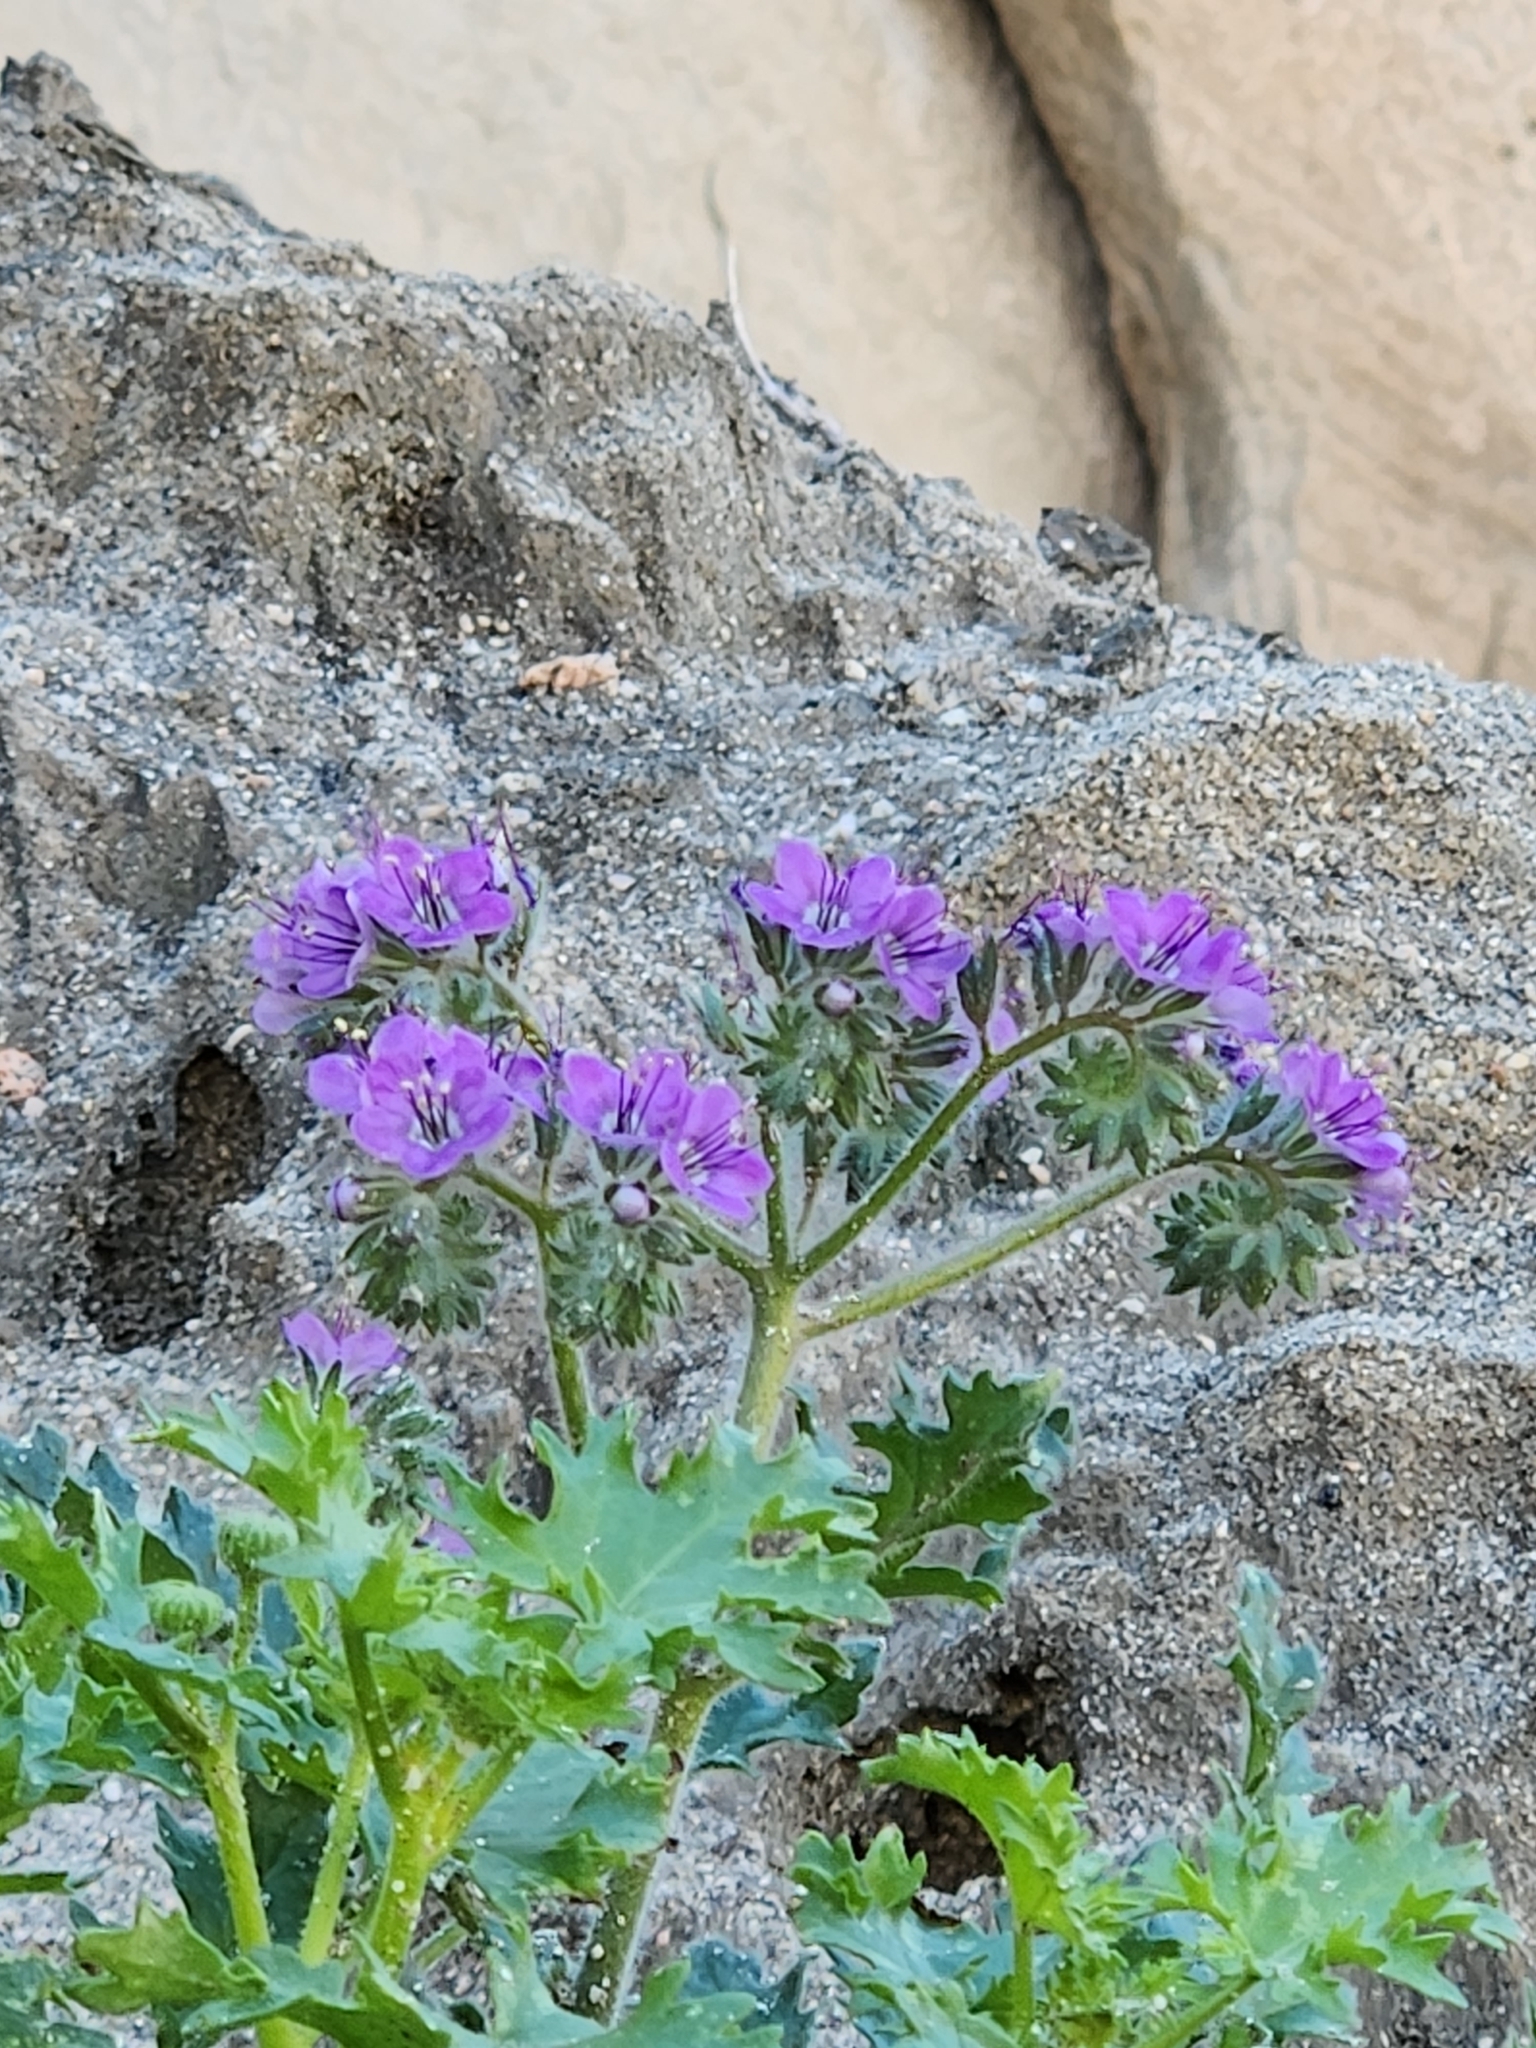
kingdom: Plantae
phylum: Tracheophyta
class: Magnoliopsida
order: Boraginales
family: Hydrophyllaceae
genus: Phacelia
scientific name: Phacelia crenulata
